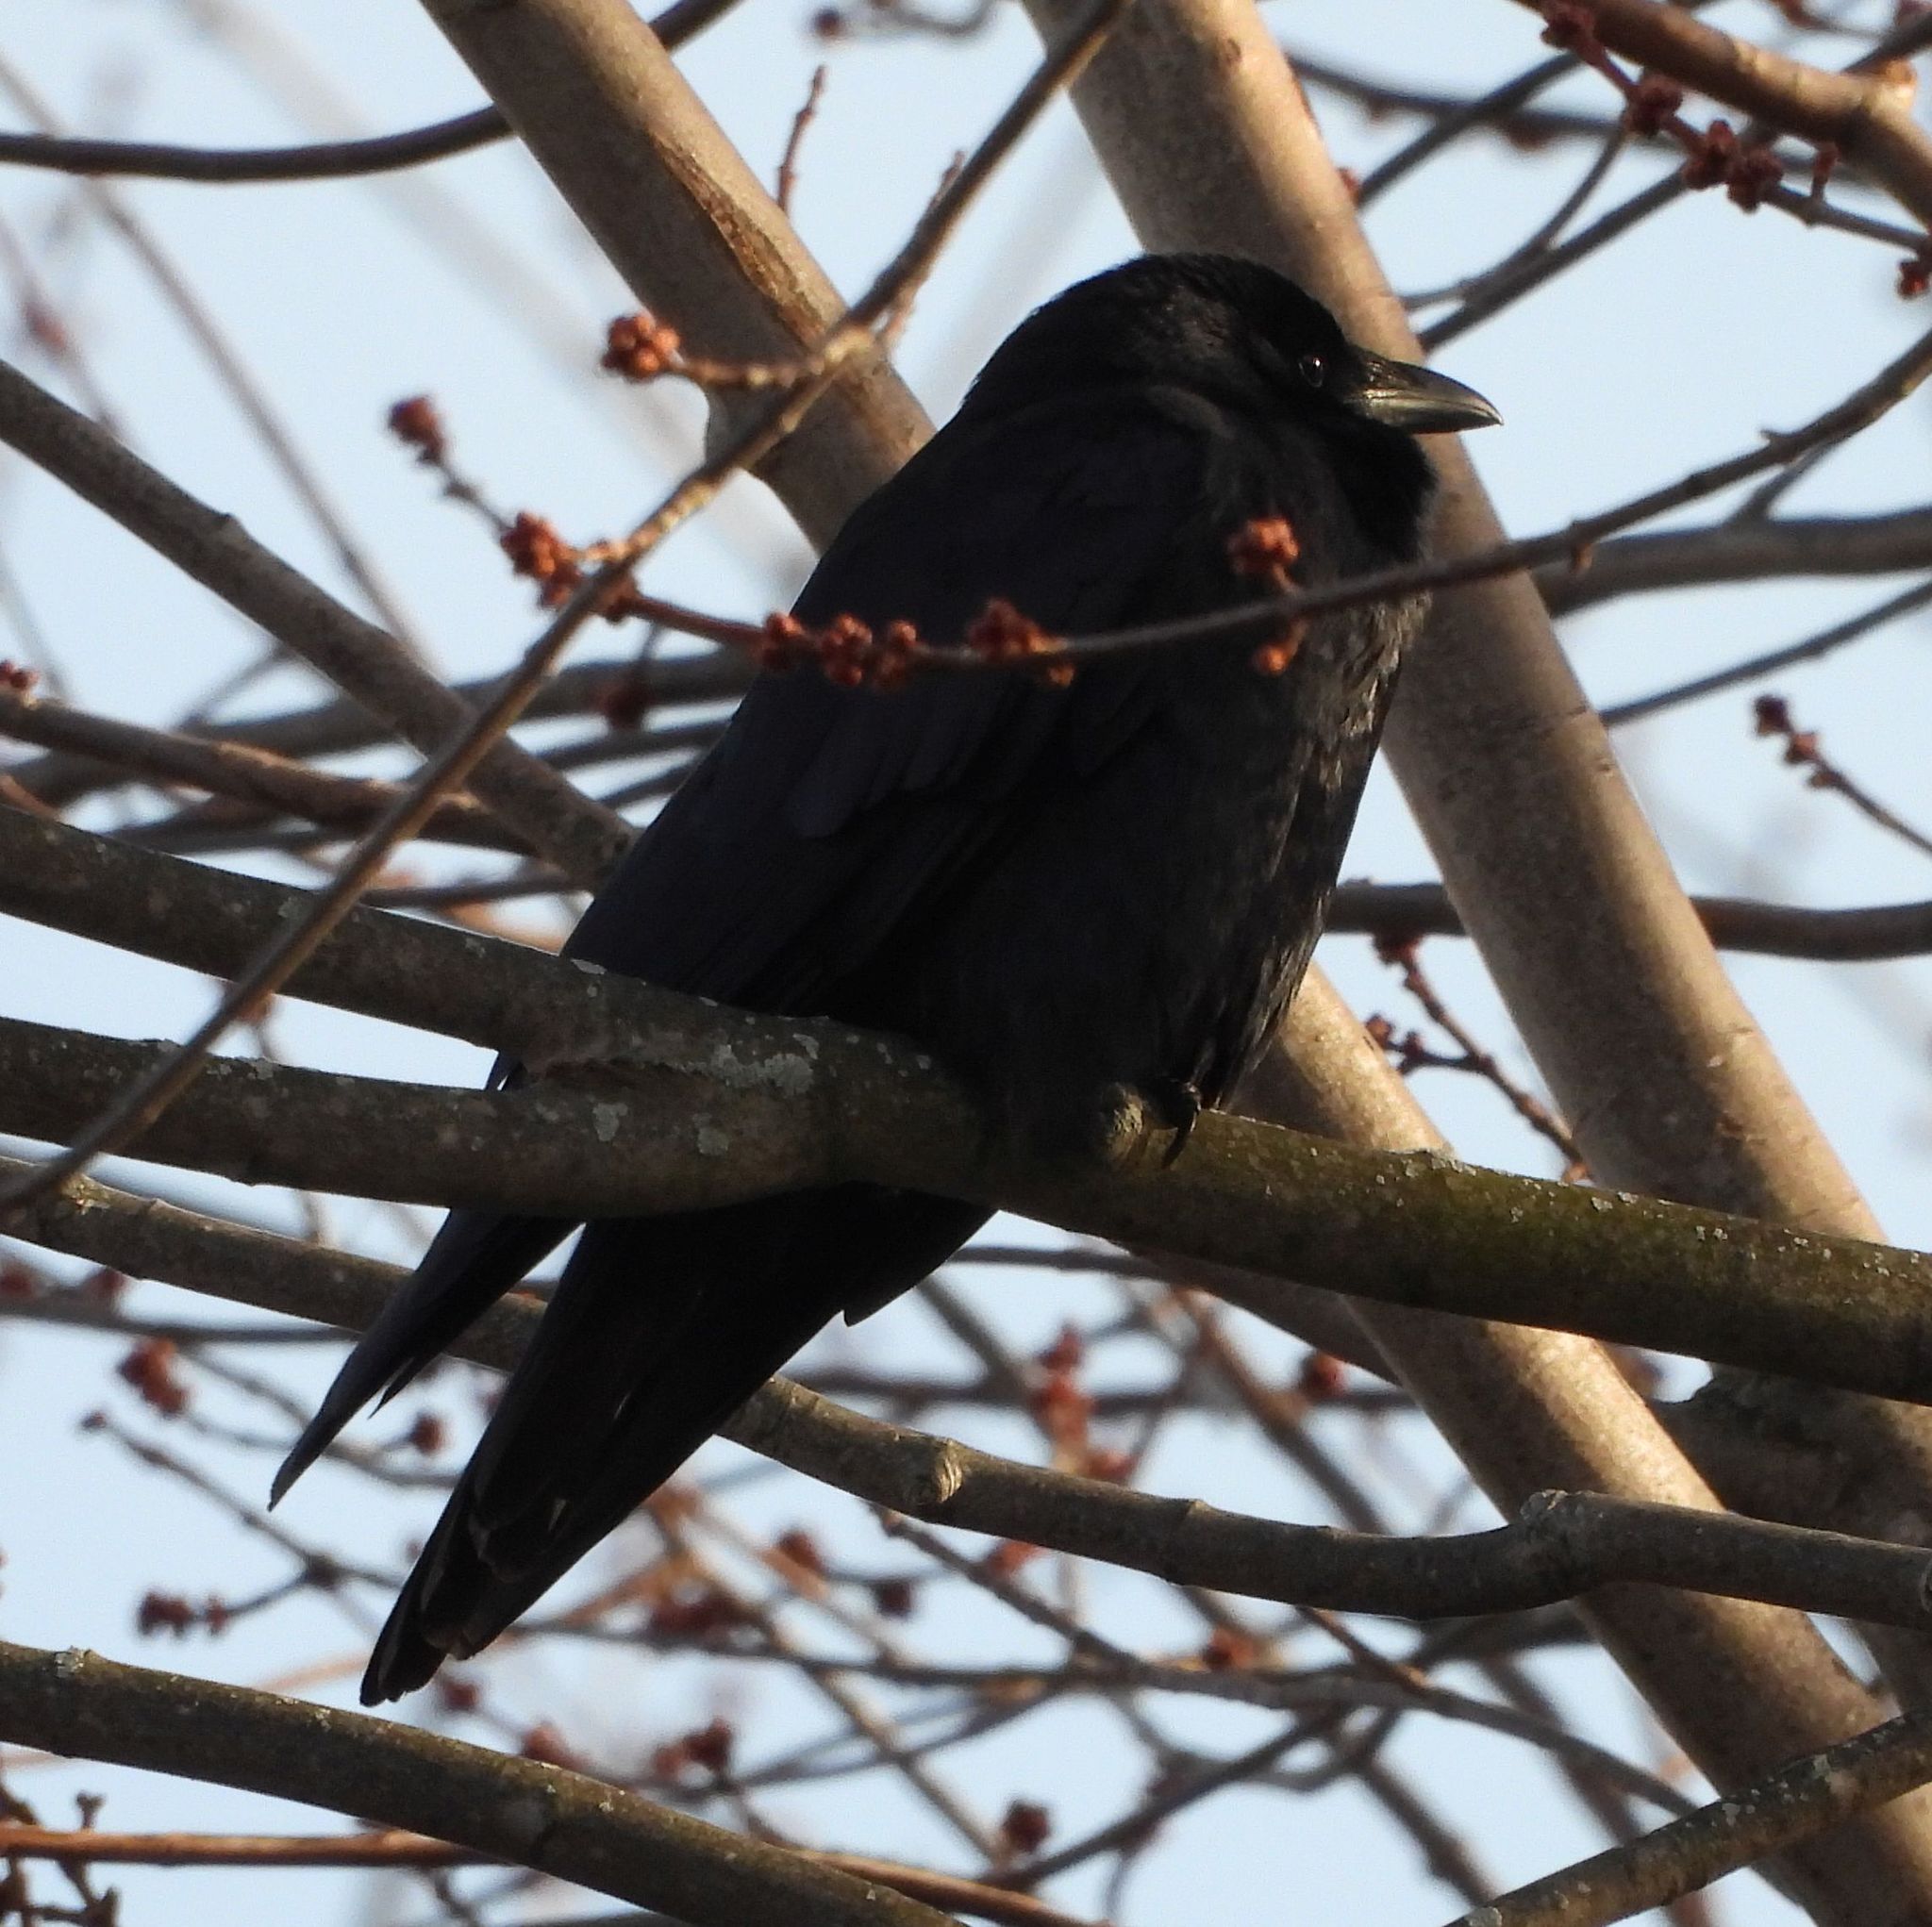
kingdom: Animalia
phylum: Chordata
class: Aves
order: Passeriformes
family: Corvidae
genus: Corvus
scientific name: Corvus ossifragus
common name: Fish crow
